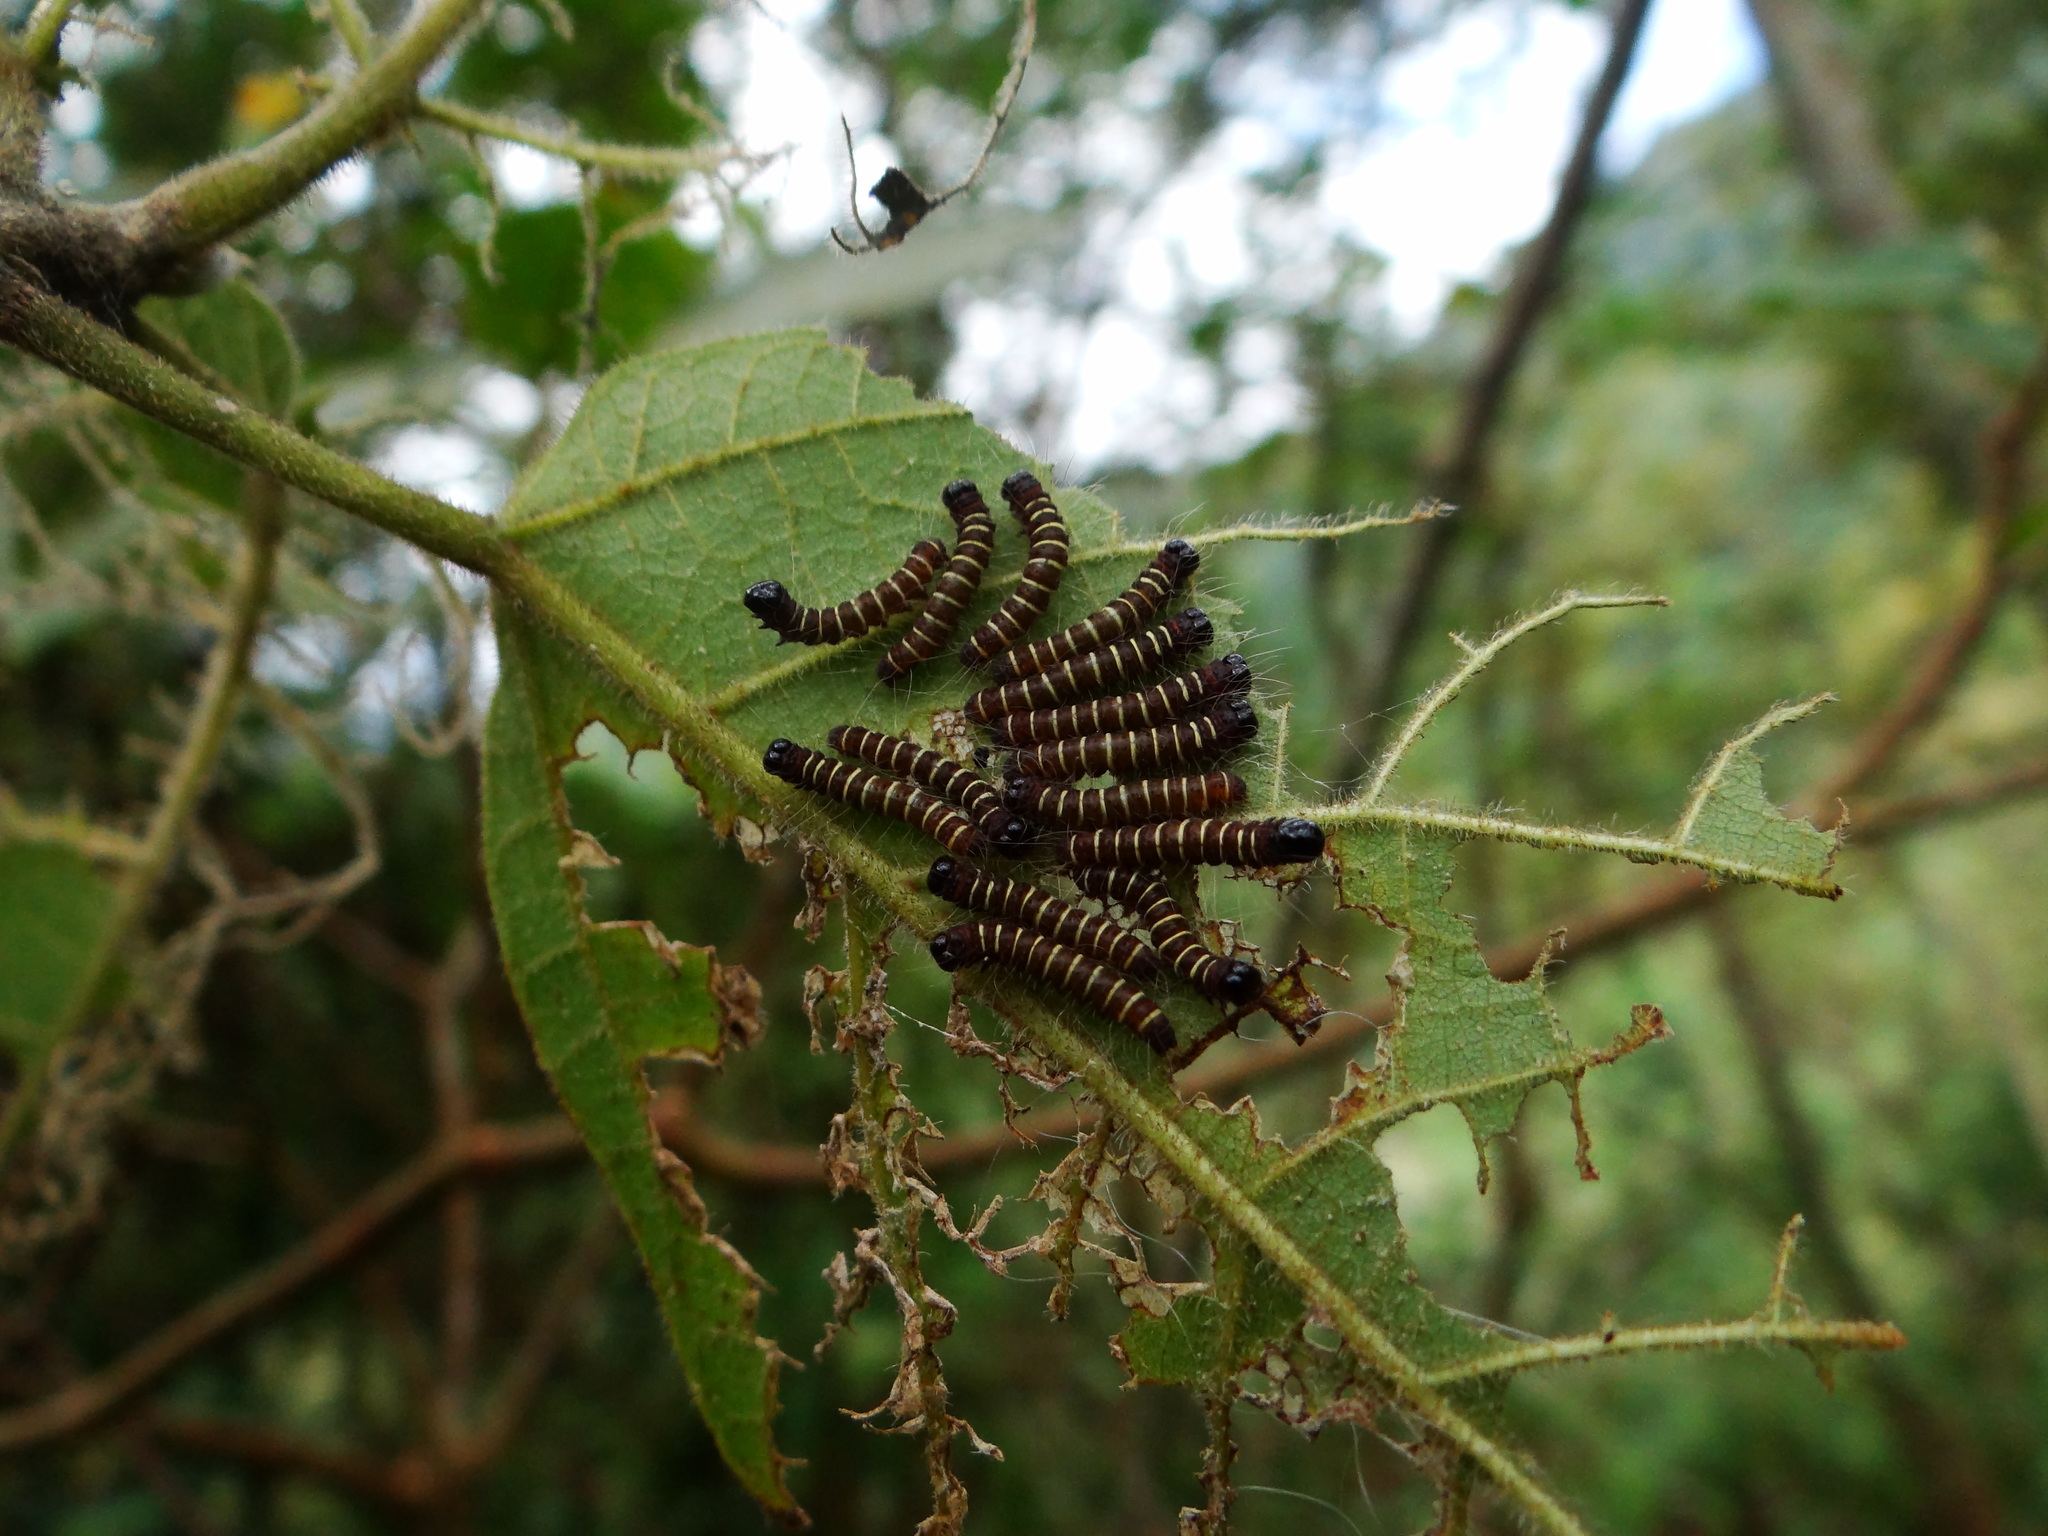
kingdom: Animalia
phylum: Arthropoda
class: Insecta
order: Lepidoptera
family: Erebidae
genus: Asota
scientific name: Asota plana
